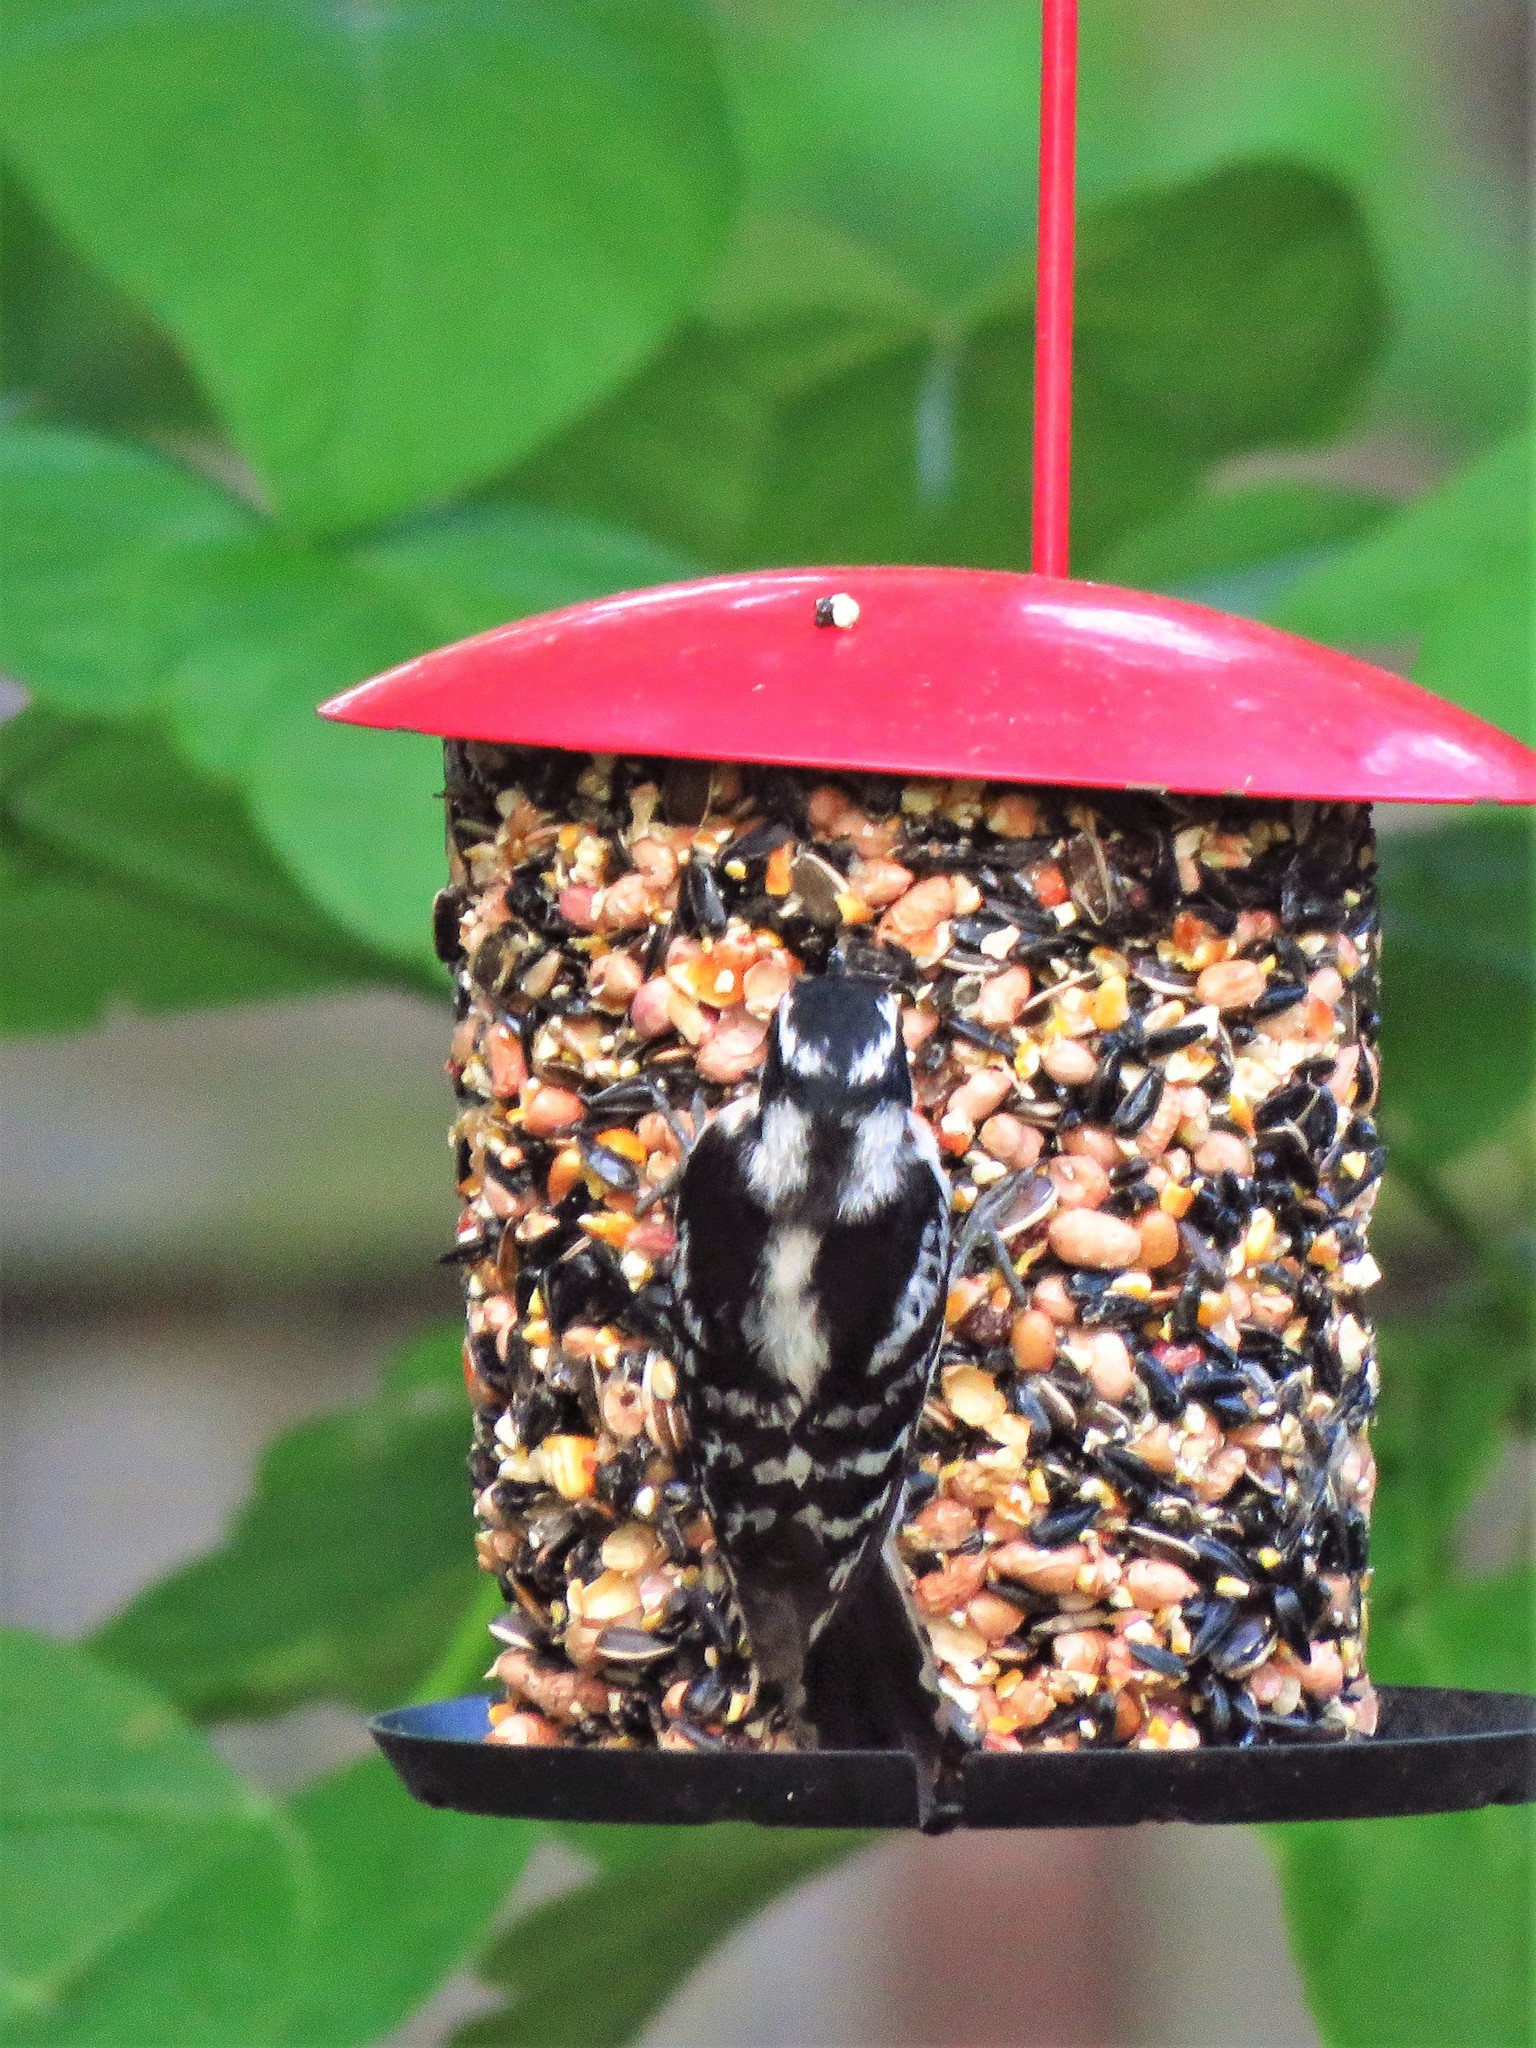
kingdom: Animalia
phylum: Chordata
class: Aves
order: Piciformes
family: Picidae
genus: Dryobates
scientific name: Dryobates pubescens
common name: Downy woodpecker
